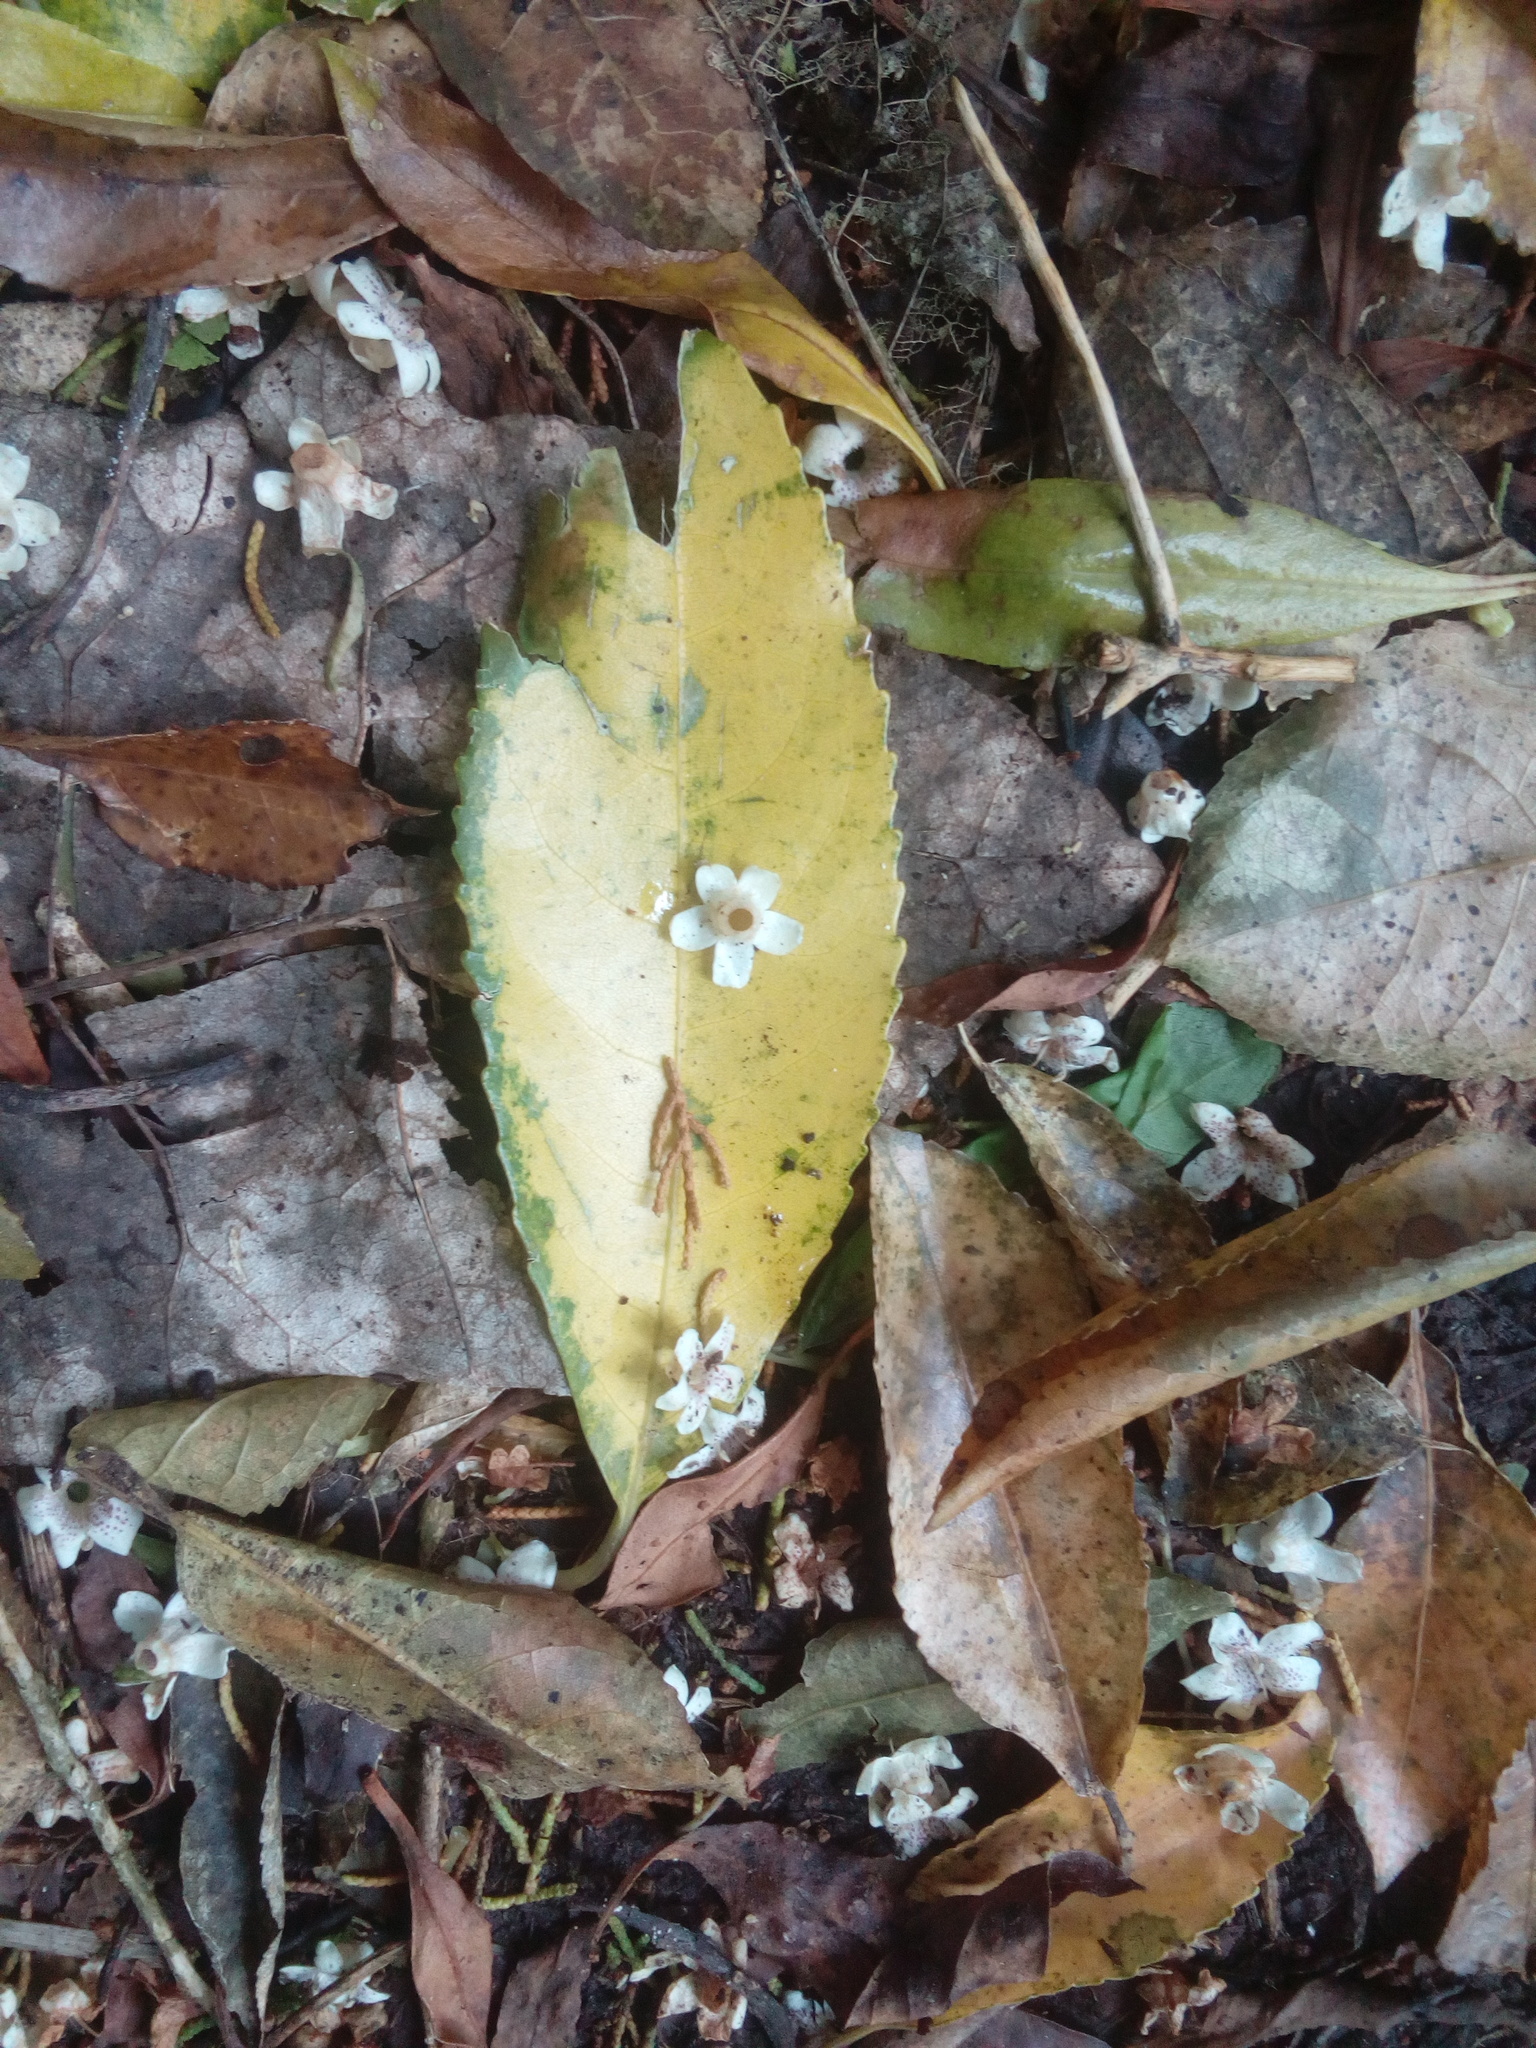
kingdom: Plantae
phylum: Tracheophyta
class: Magnoliopsida
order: Malpighiales
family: Violaceae
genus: Melicytus
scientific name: Melicytus ramiflorus
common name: Mahoe
